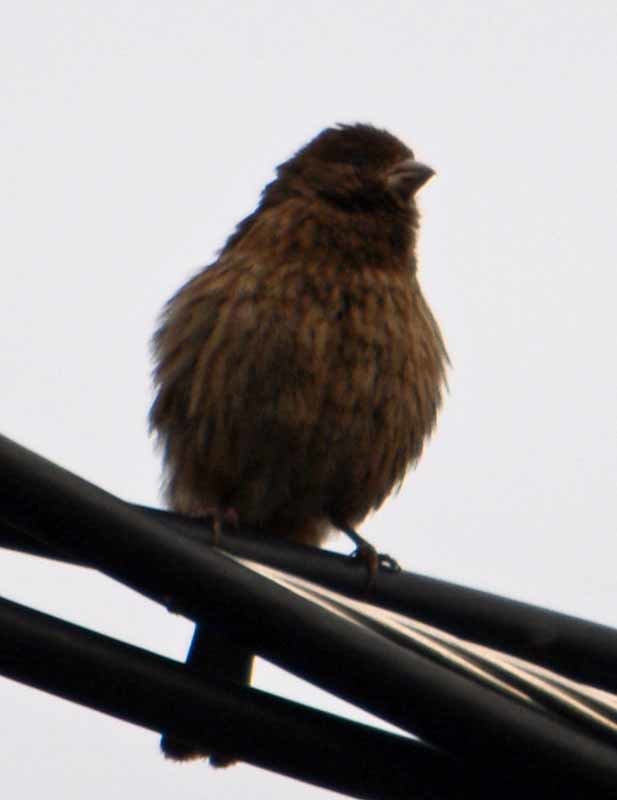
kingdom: Animalia
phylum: Chordata
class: Aves
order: Passeriformes
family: Fringillidae
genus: Haemorhous
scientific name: Haemorhous mexicanus
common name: House finch
